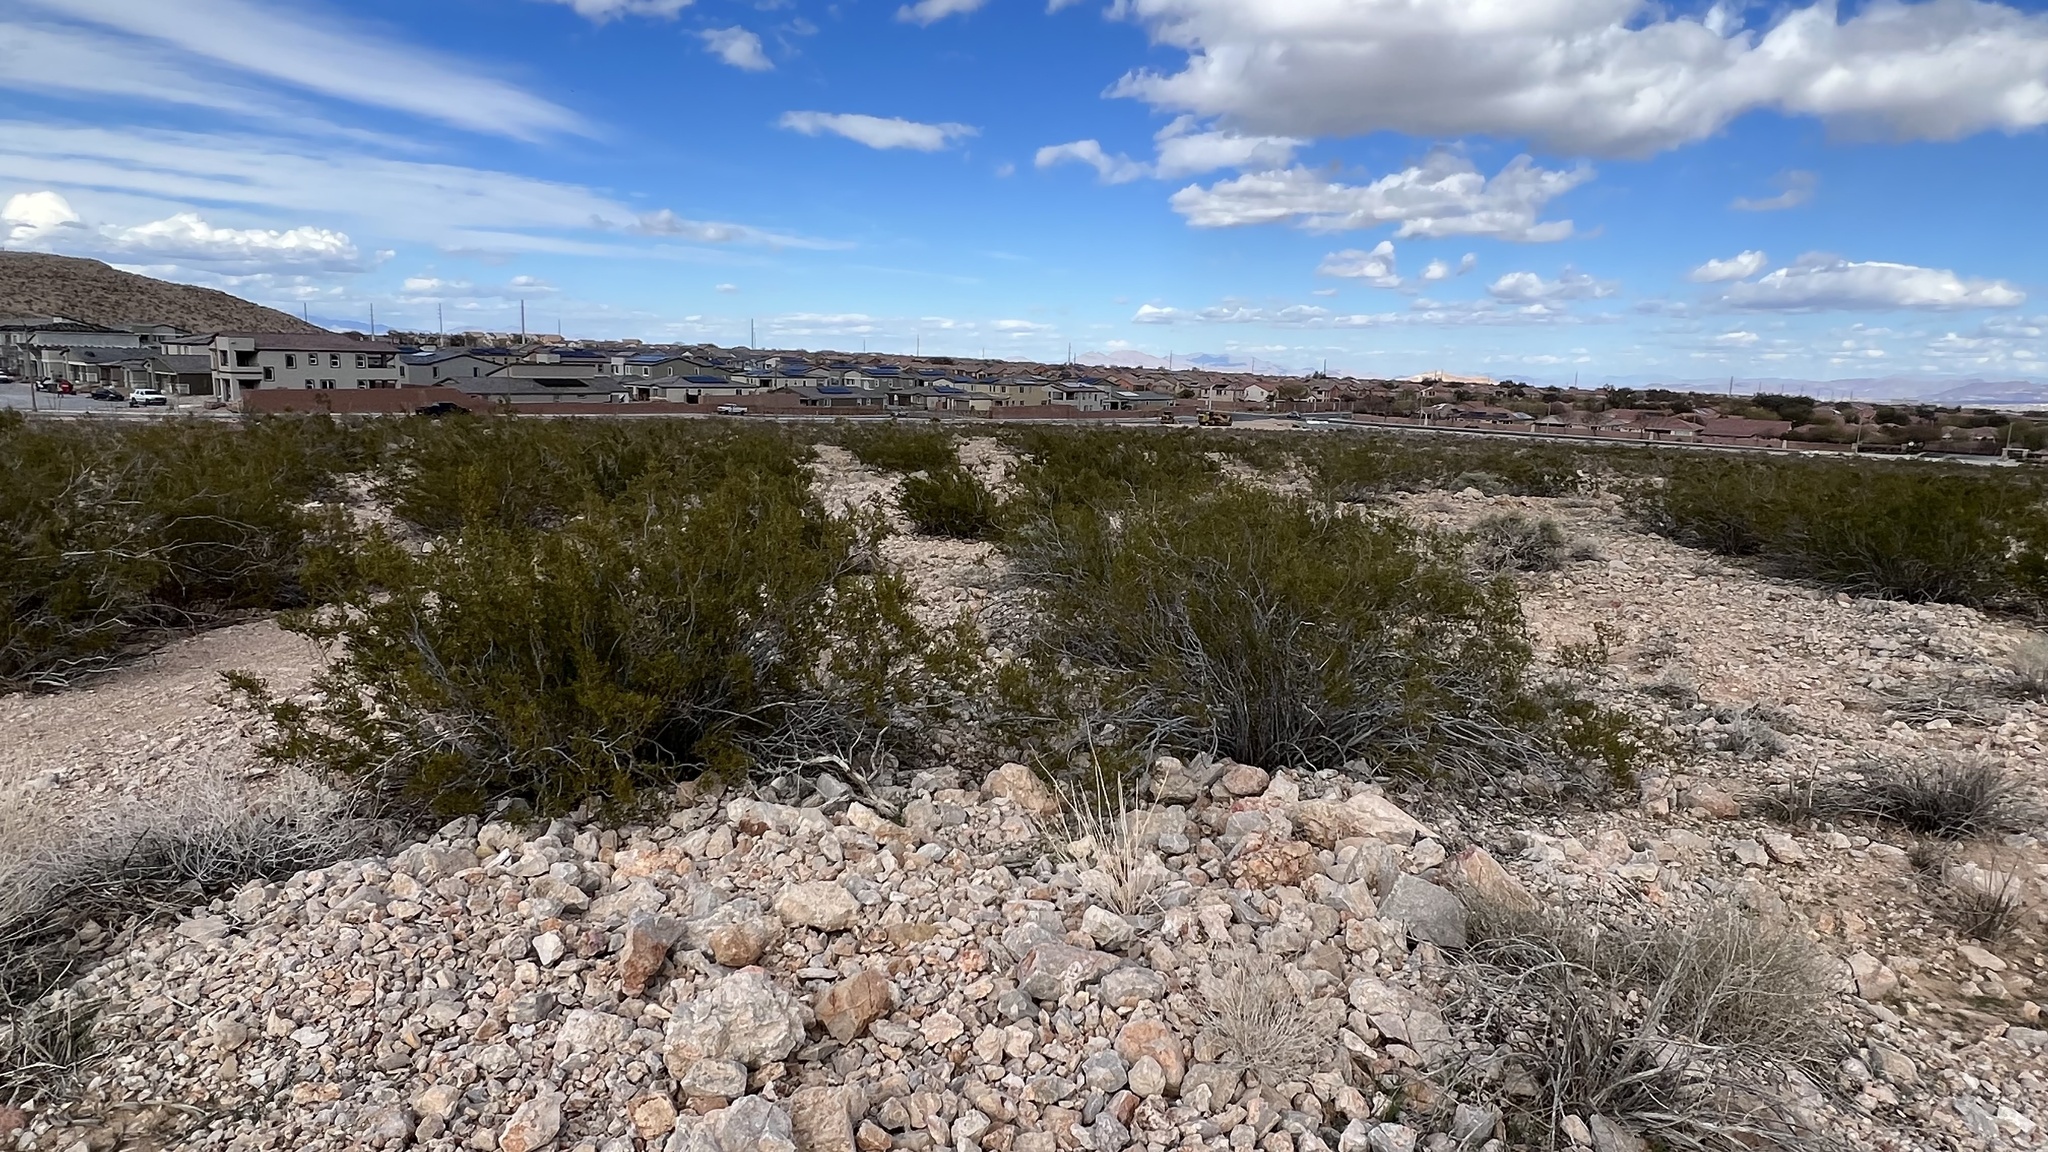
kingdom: Plantae
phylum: Tracheophyta
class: Magnoliopsida
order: Zygophyllales
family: Zygophyllaceae
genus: Larrea
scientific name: Larrea tridentata
